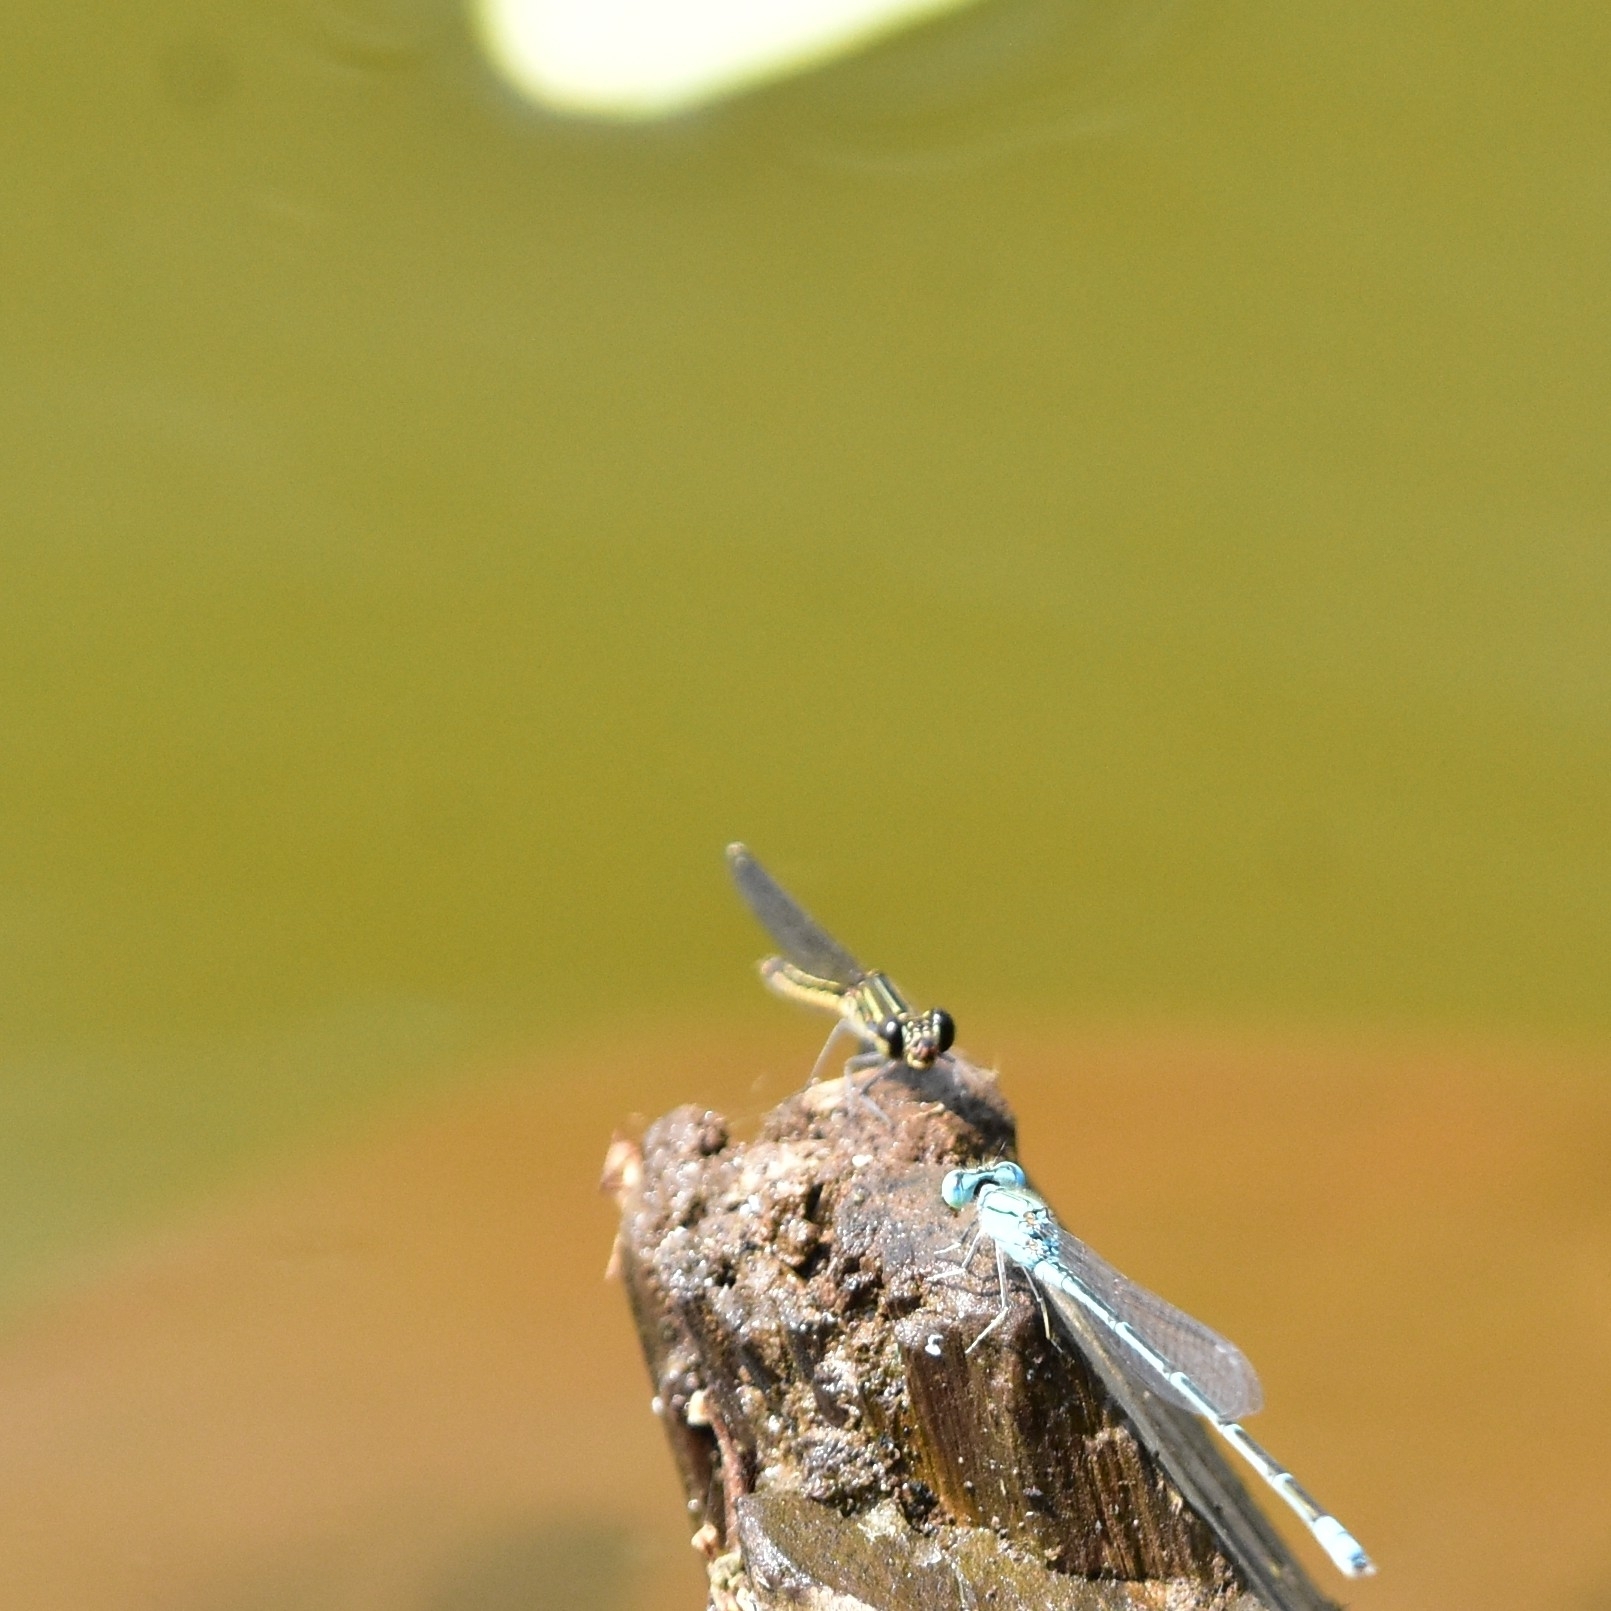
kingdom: Animalia
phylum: Arthropoda
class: Insecta
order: Odonata
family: Chlorocyphidae
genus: Libellago
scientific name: Libellago indica
